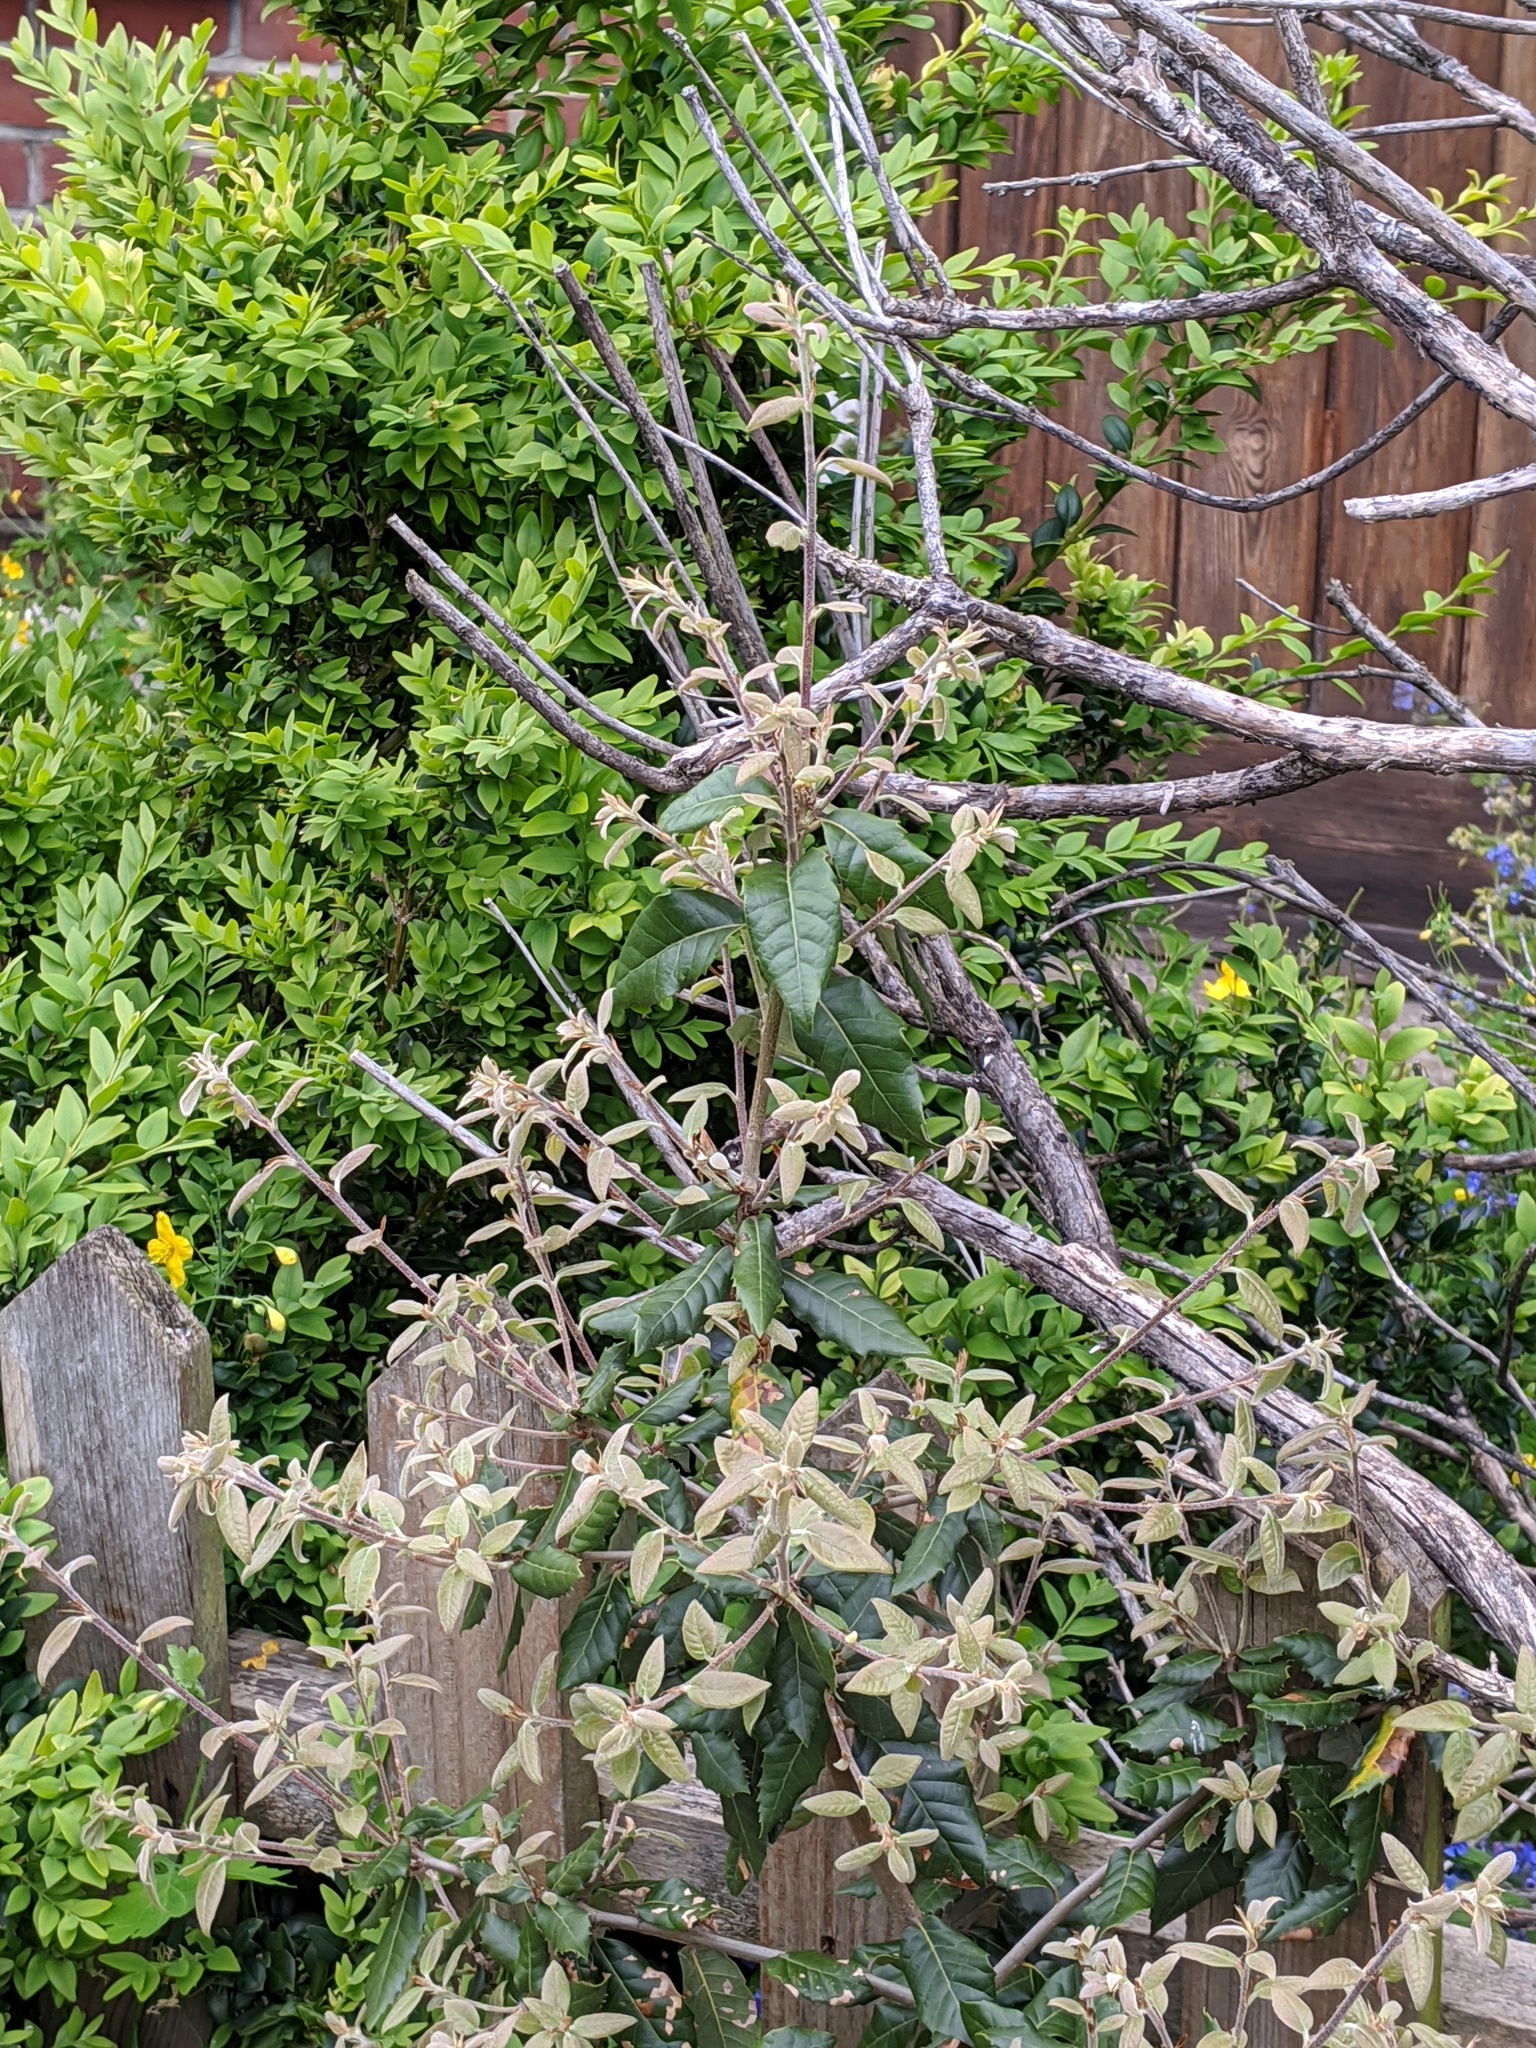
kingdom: Plantae
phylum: Tracheophyta
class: Magnoliopsida
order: Fagales
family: Fagaceae
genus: Quercus
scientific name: Quercus ilex
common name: Evergreen oak
